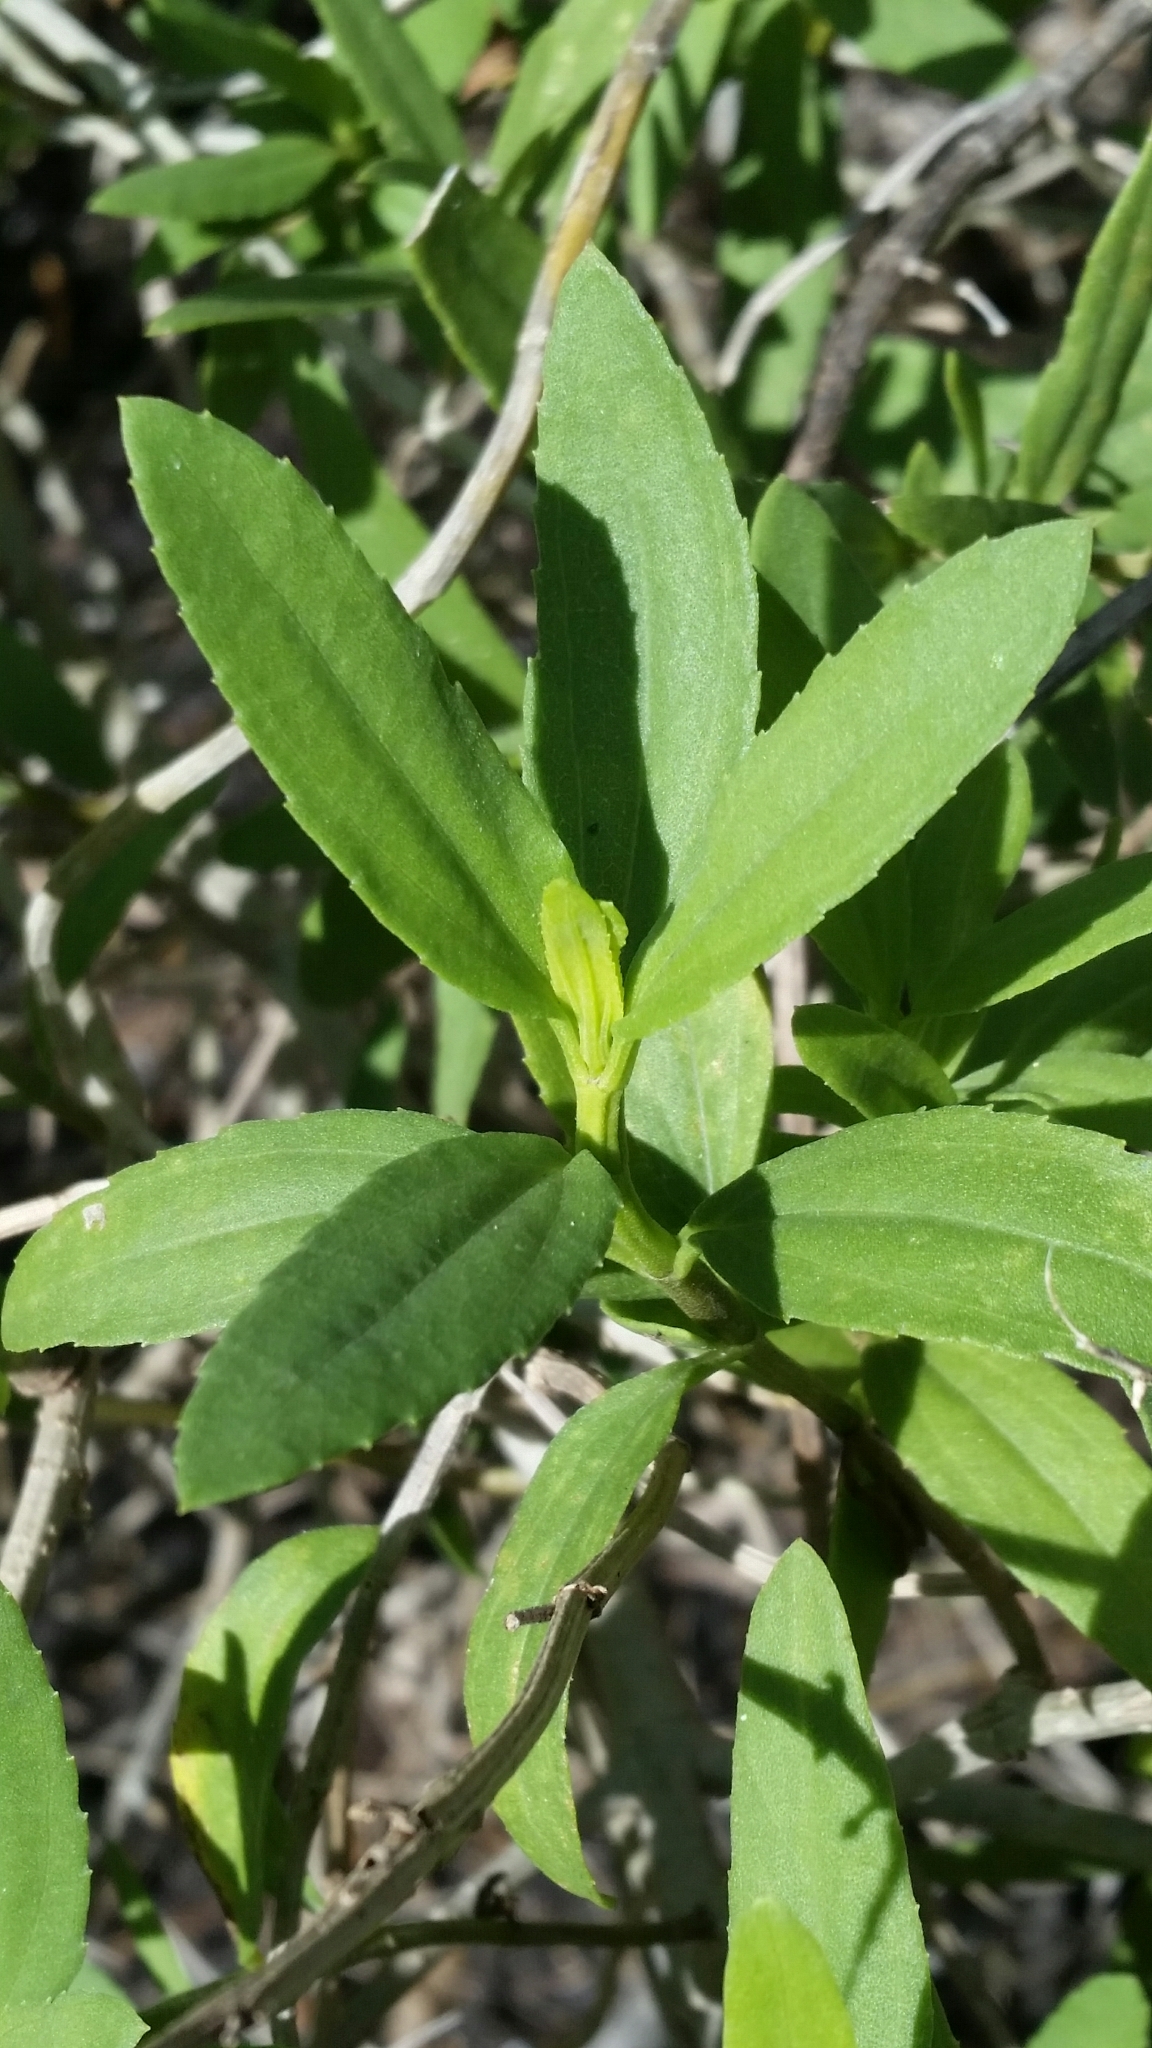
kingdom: Plantae
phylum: Tracheophyta
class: Magnoliopsida
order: Asterales
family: Asteraceae
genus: Iva
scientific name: Iva frutescens
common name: Big-leaved marsh-elder
